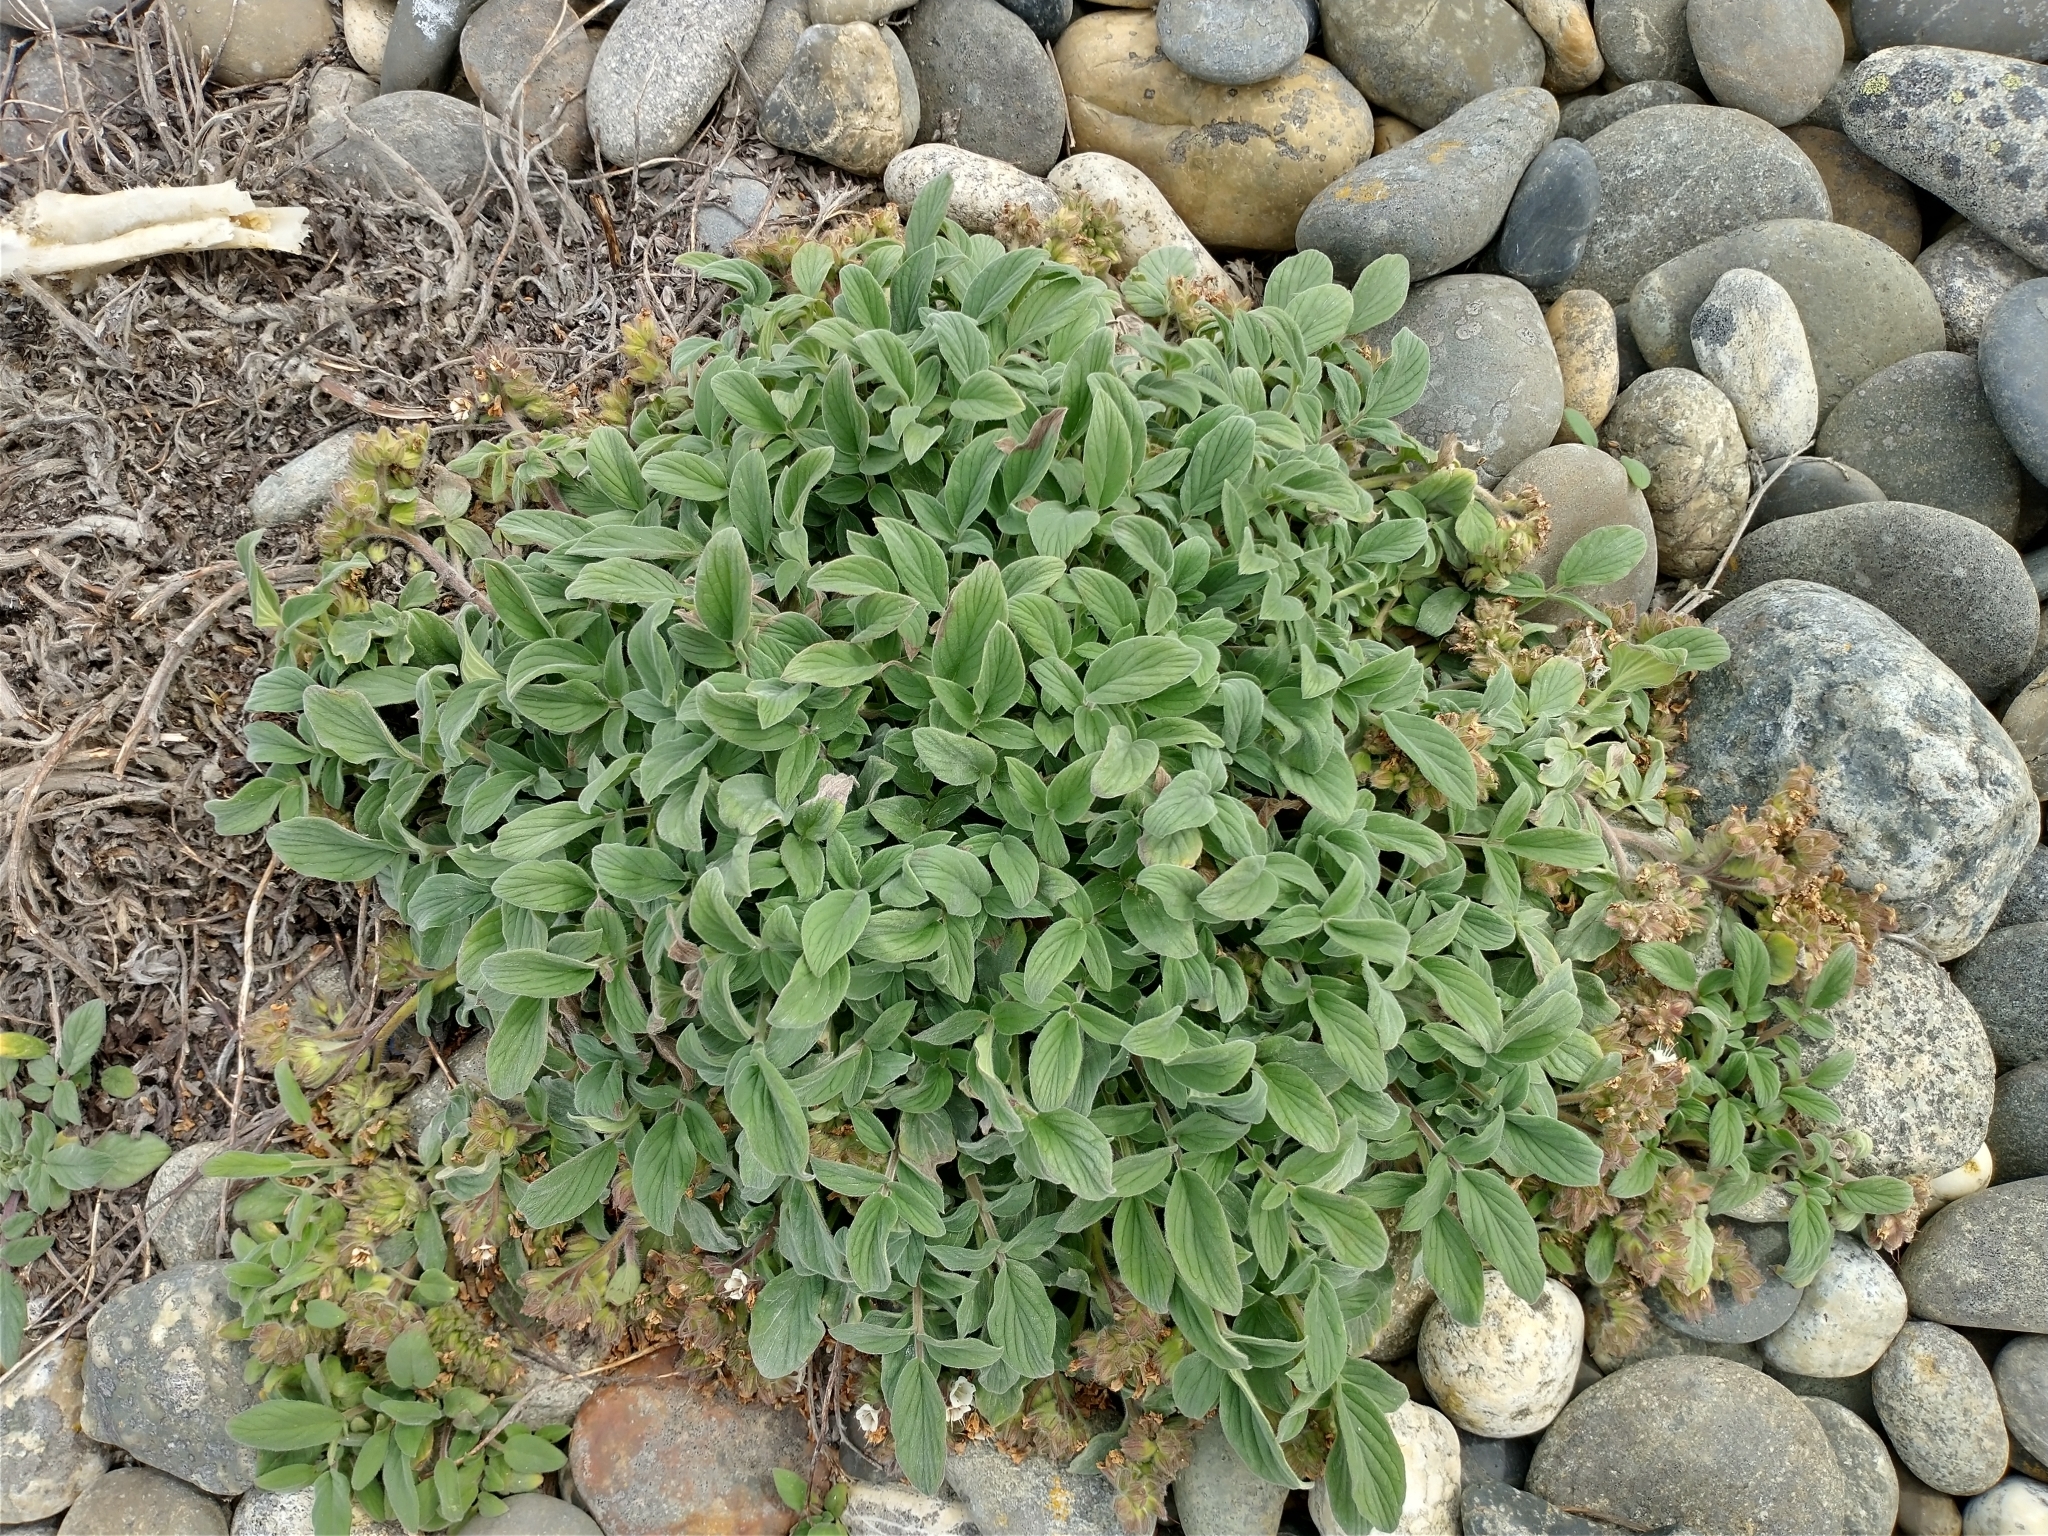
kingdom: Plantae
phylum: Tracheophyta
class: Magnoliopsida
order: Boraginales
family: Hydrophyllaceae
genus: Phacelia
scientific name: Phacelia secunda
